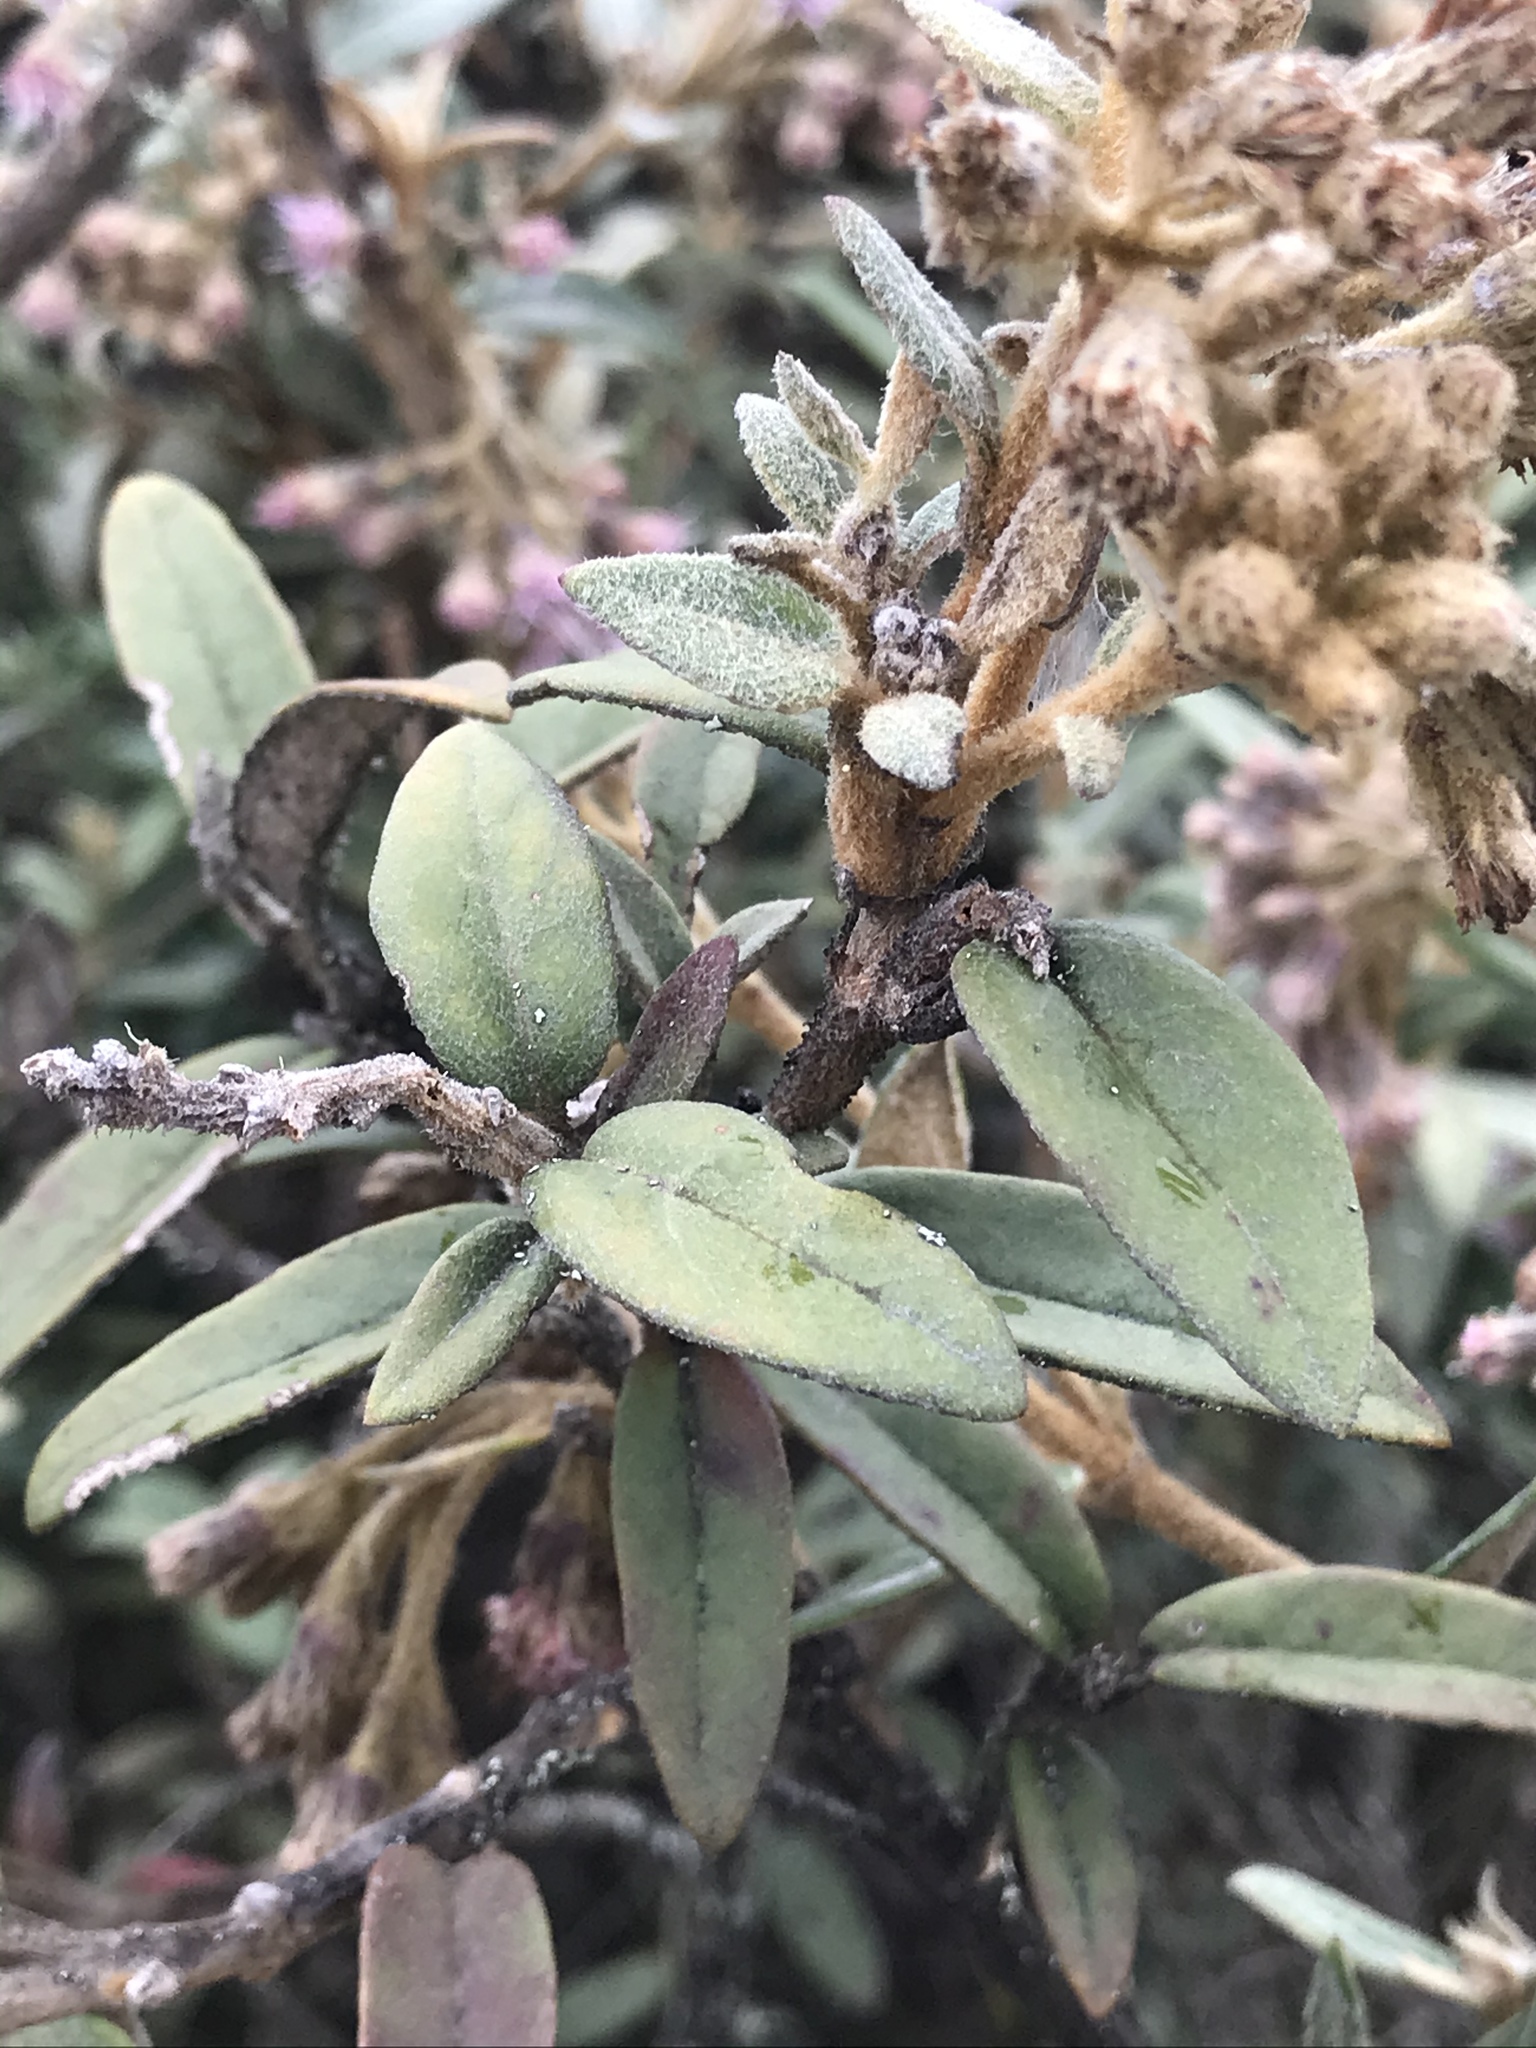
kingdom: Plantae
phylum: Tracheophyta
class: Magnoliopsida
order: Asterales
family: Asteraceae
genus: Ageratina
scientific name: Ageratina gynoxoides
